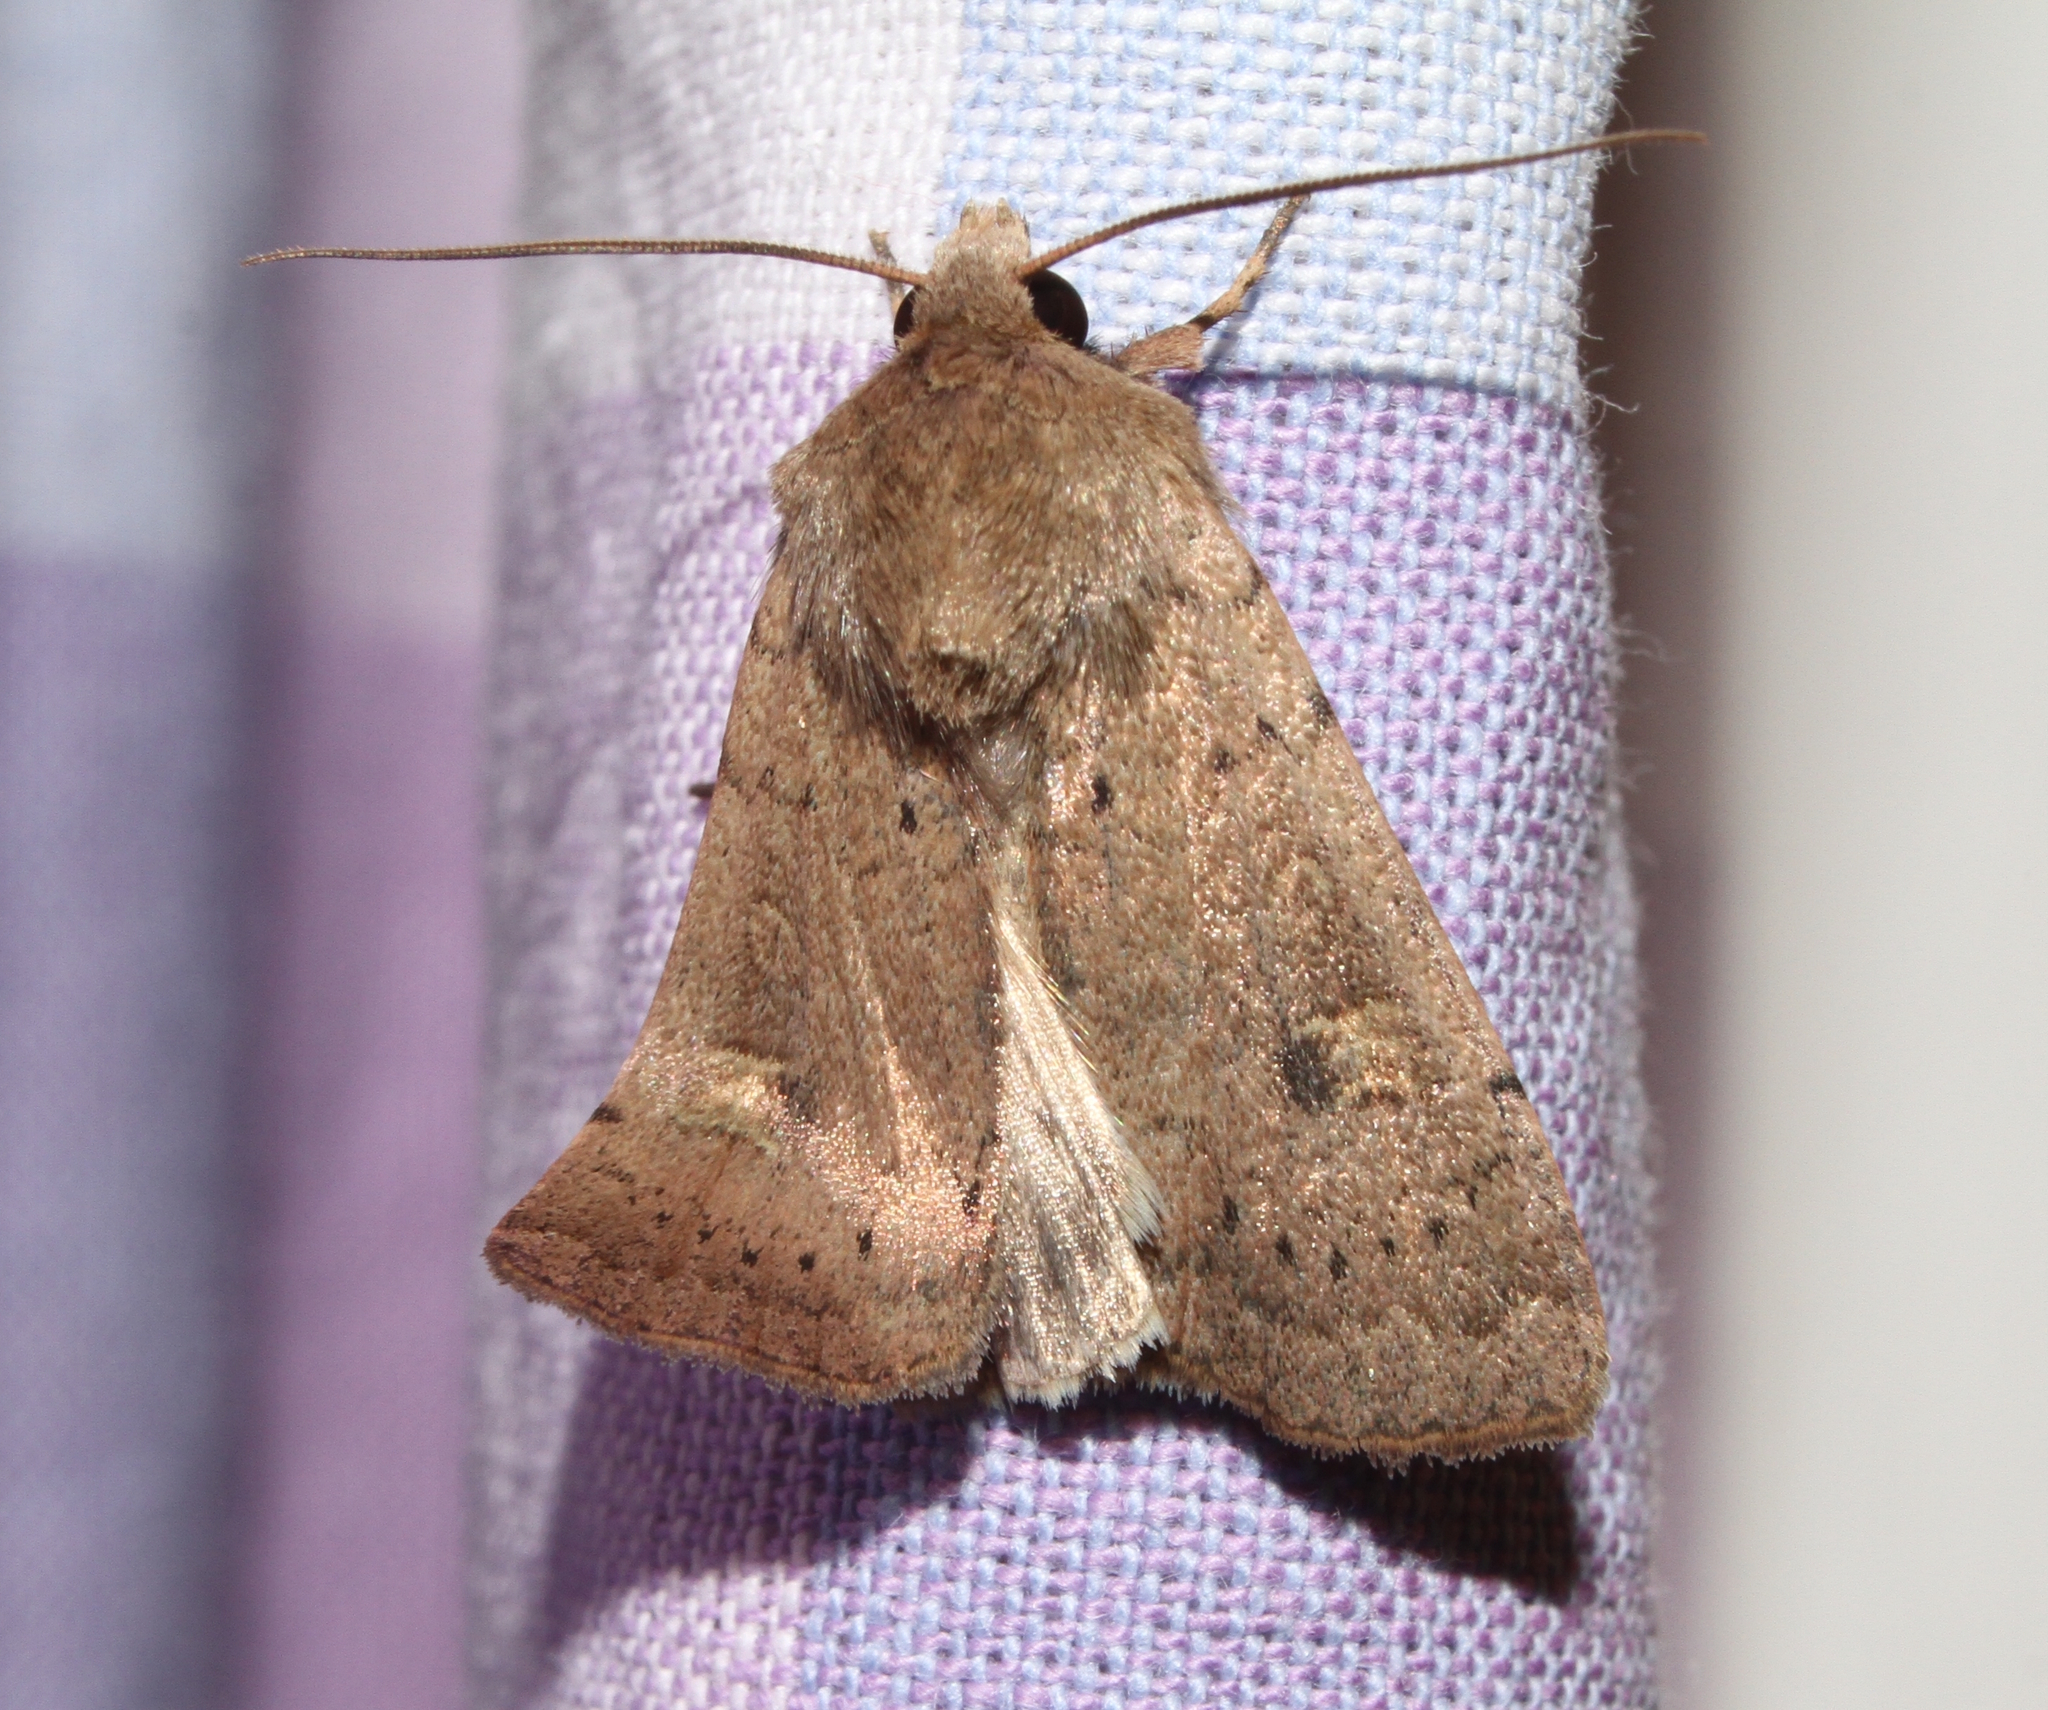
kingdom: Animalia
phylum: Arthropoda
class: Insecta
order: Lepidoptera
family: Noctuidae
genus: Xestia
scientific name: Xestia xanthographa
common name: Square-spot rustic
